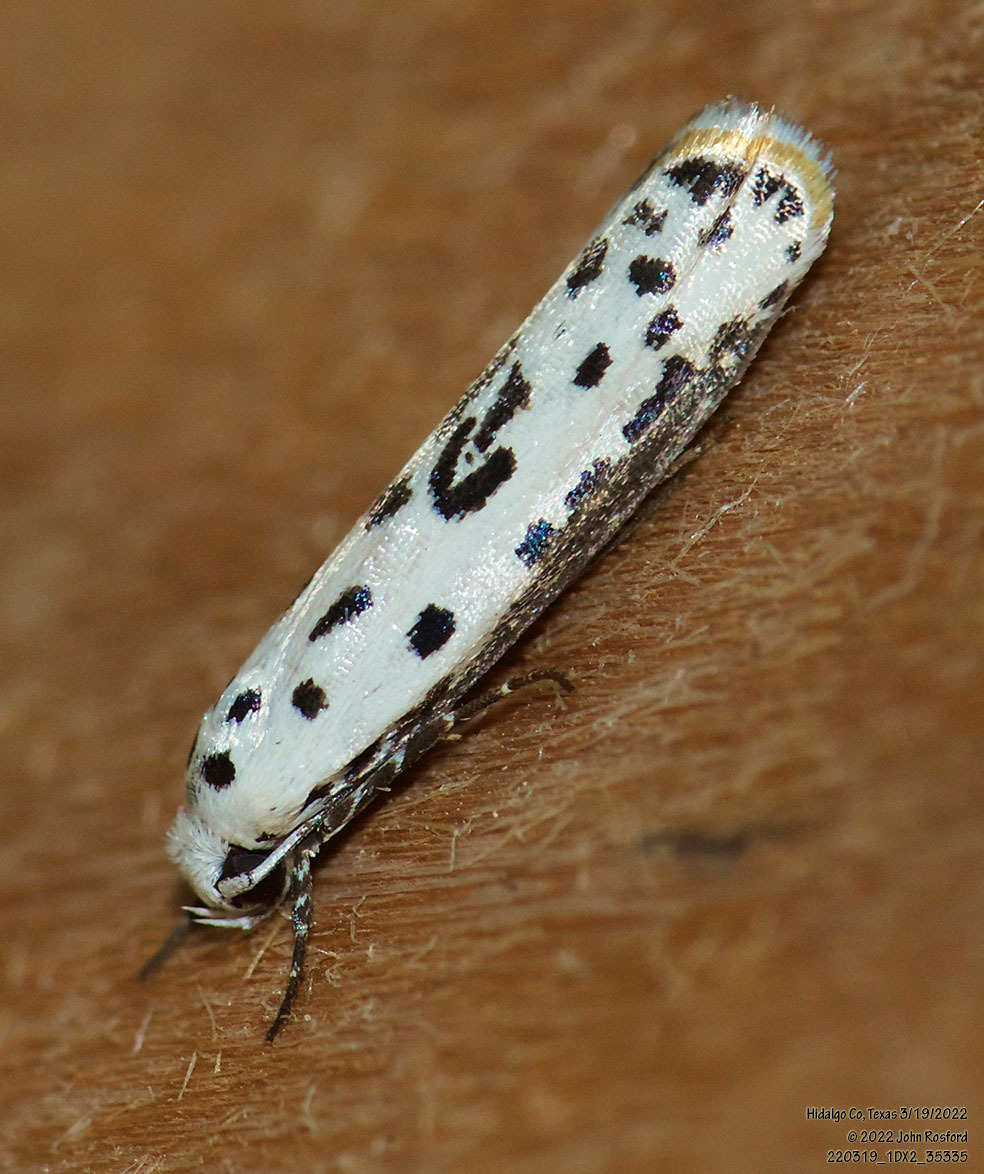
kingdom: Animalia
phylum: Arthropoda
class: Insecta
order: Lepidoptera
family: Ethmiidae
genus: Ethmia
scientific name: Ethmia bittenella
